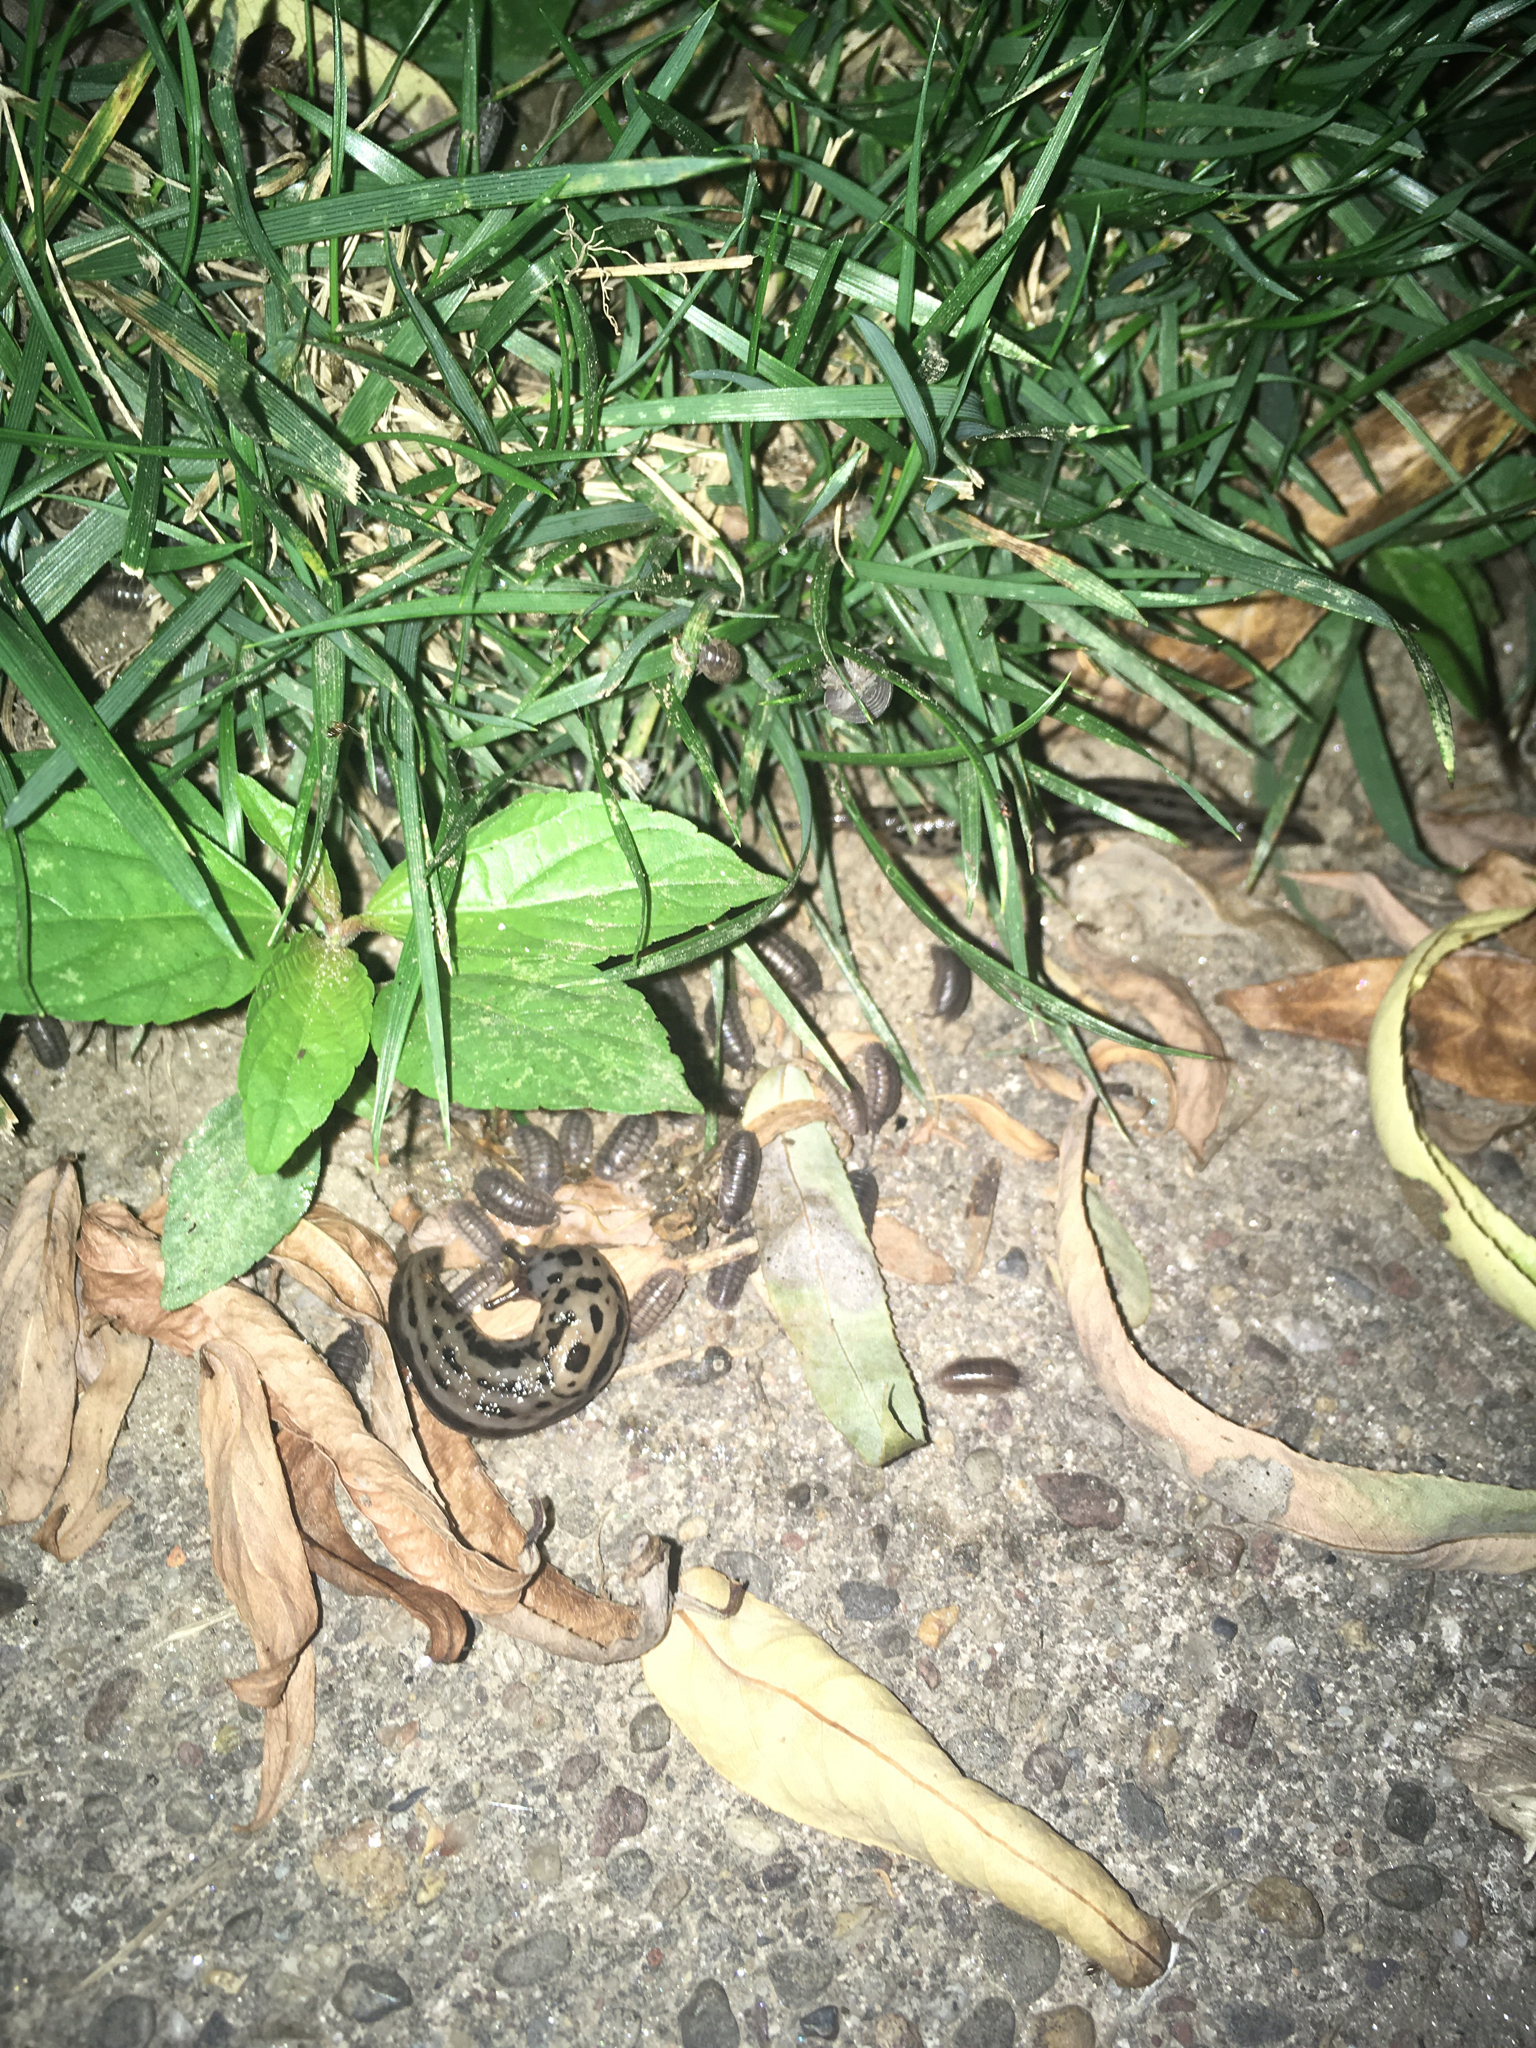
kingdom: Animalia
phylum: Mollusca
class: Gastropoda
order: Stylommatophora
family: Limacidae
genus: Limax
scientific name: Limax maximus
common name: Great grey slug
